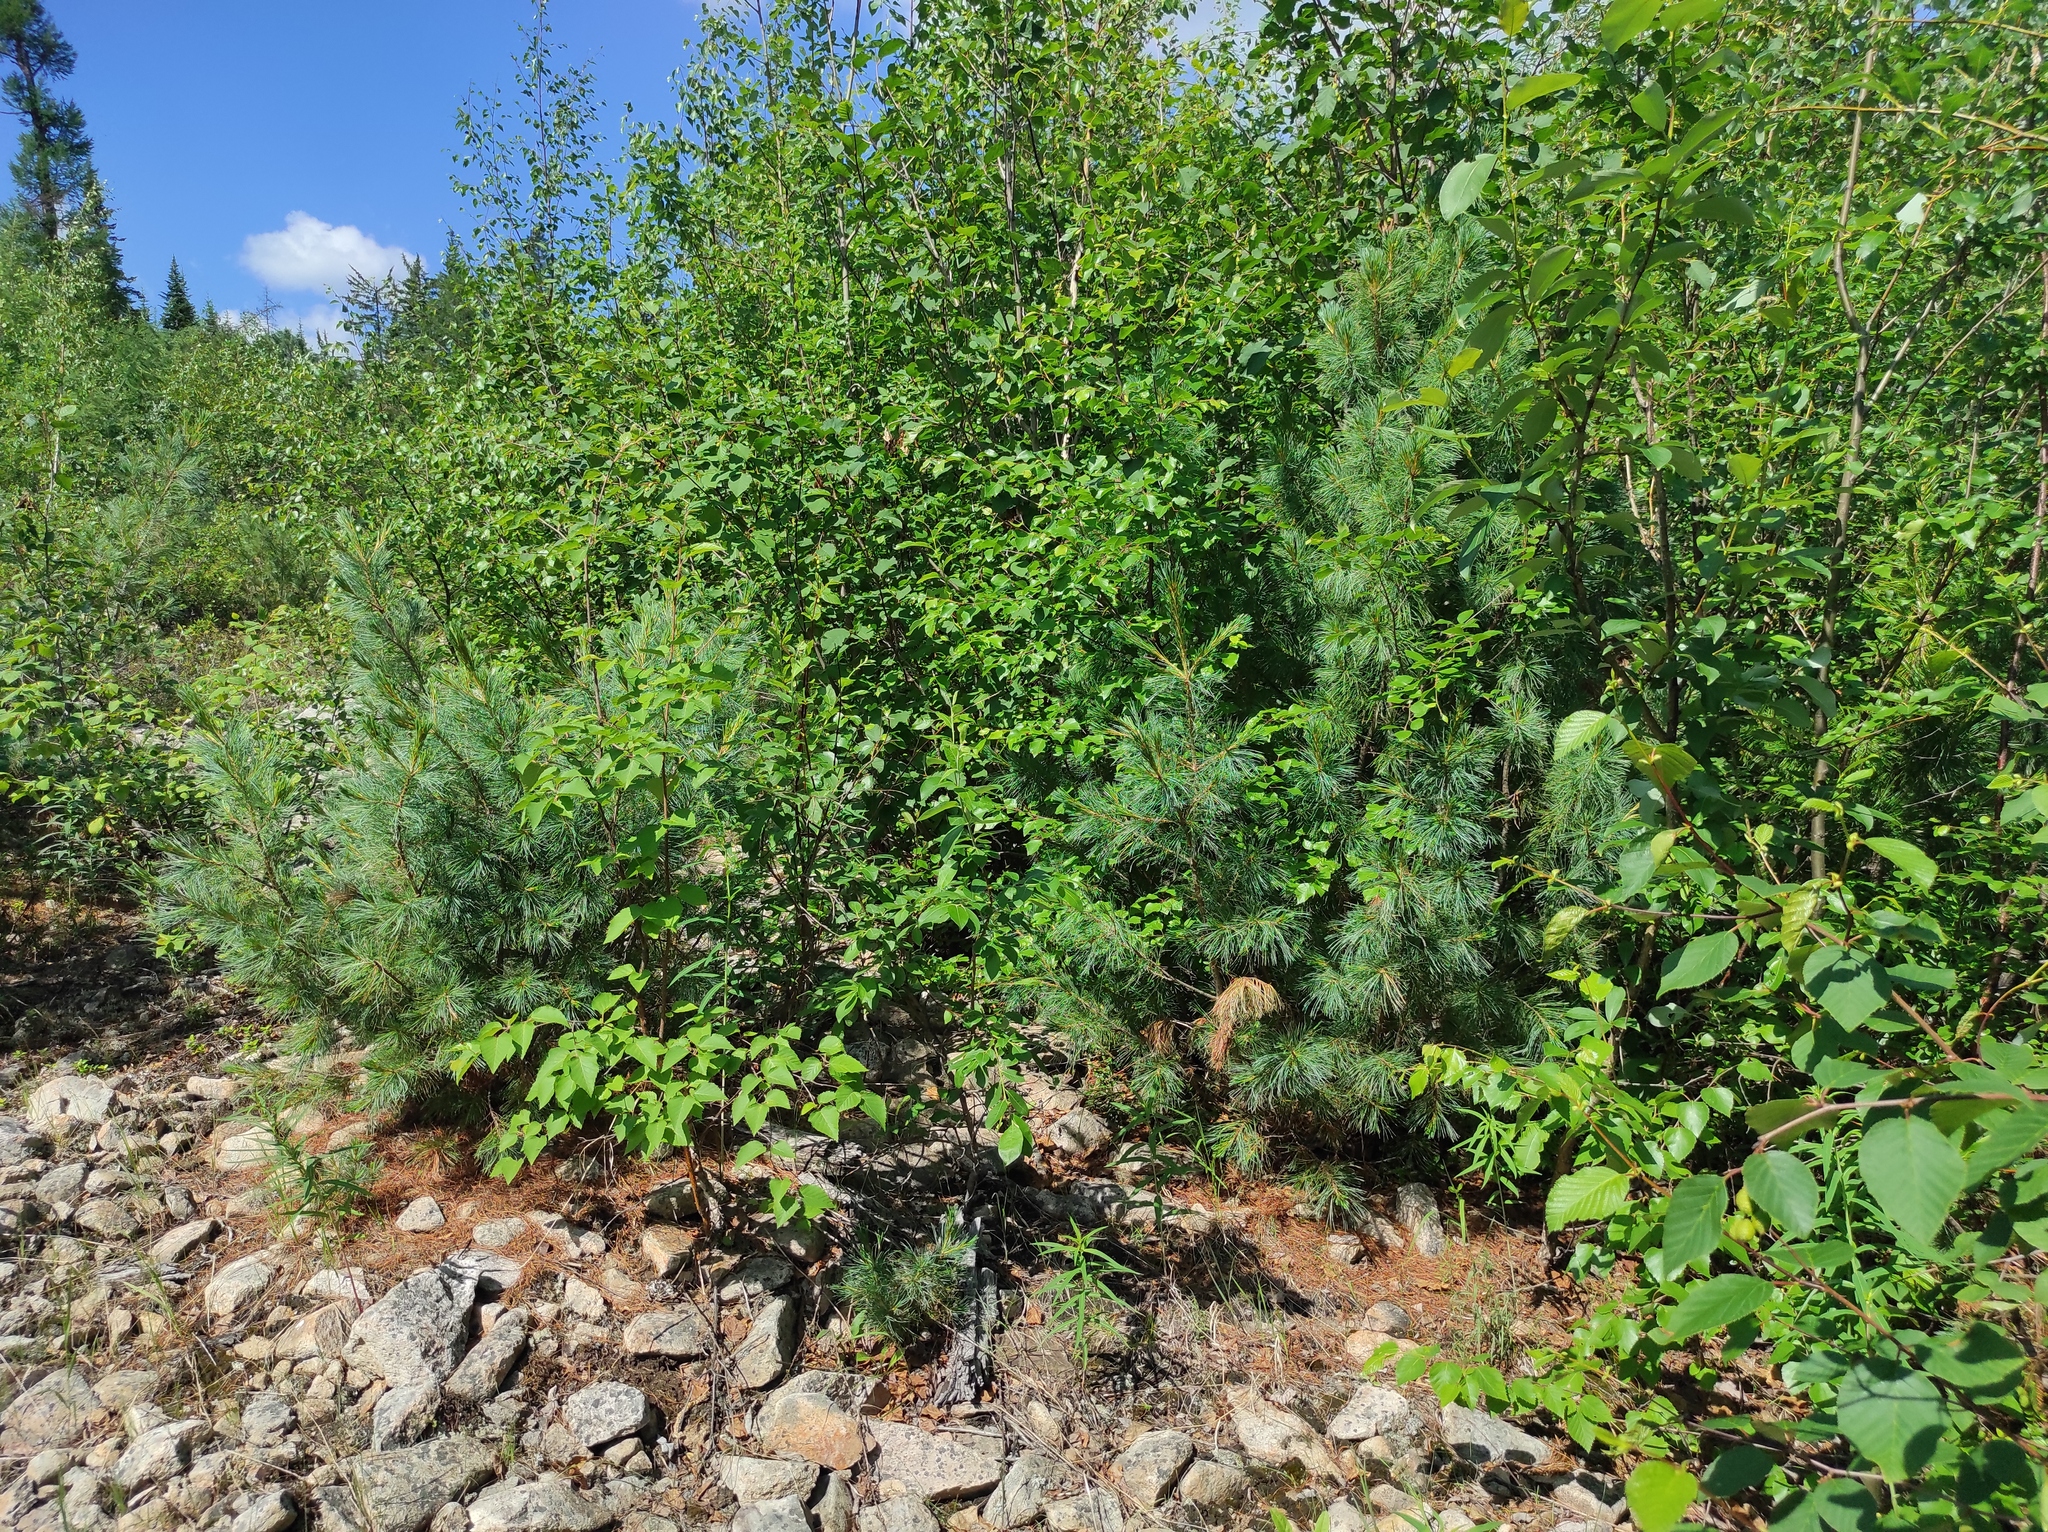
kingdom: Plantae
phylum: Tracheophyta
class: Pinopsida
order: Pinales
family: Pinaceae
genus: Pinus
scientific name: Pinus pumila
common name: Dwarf siberian pine
